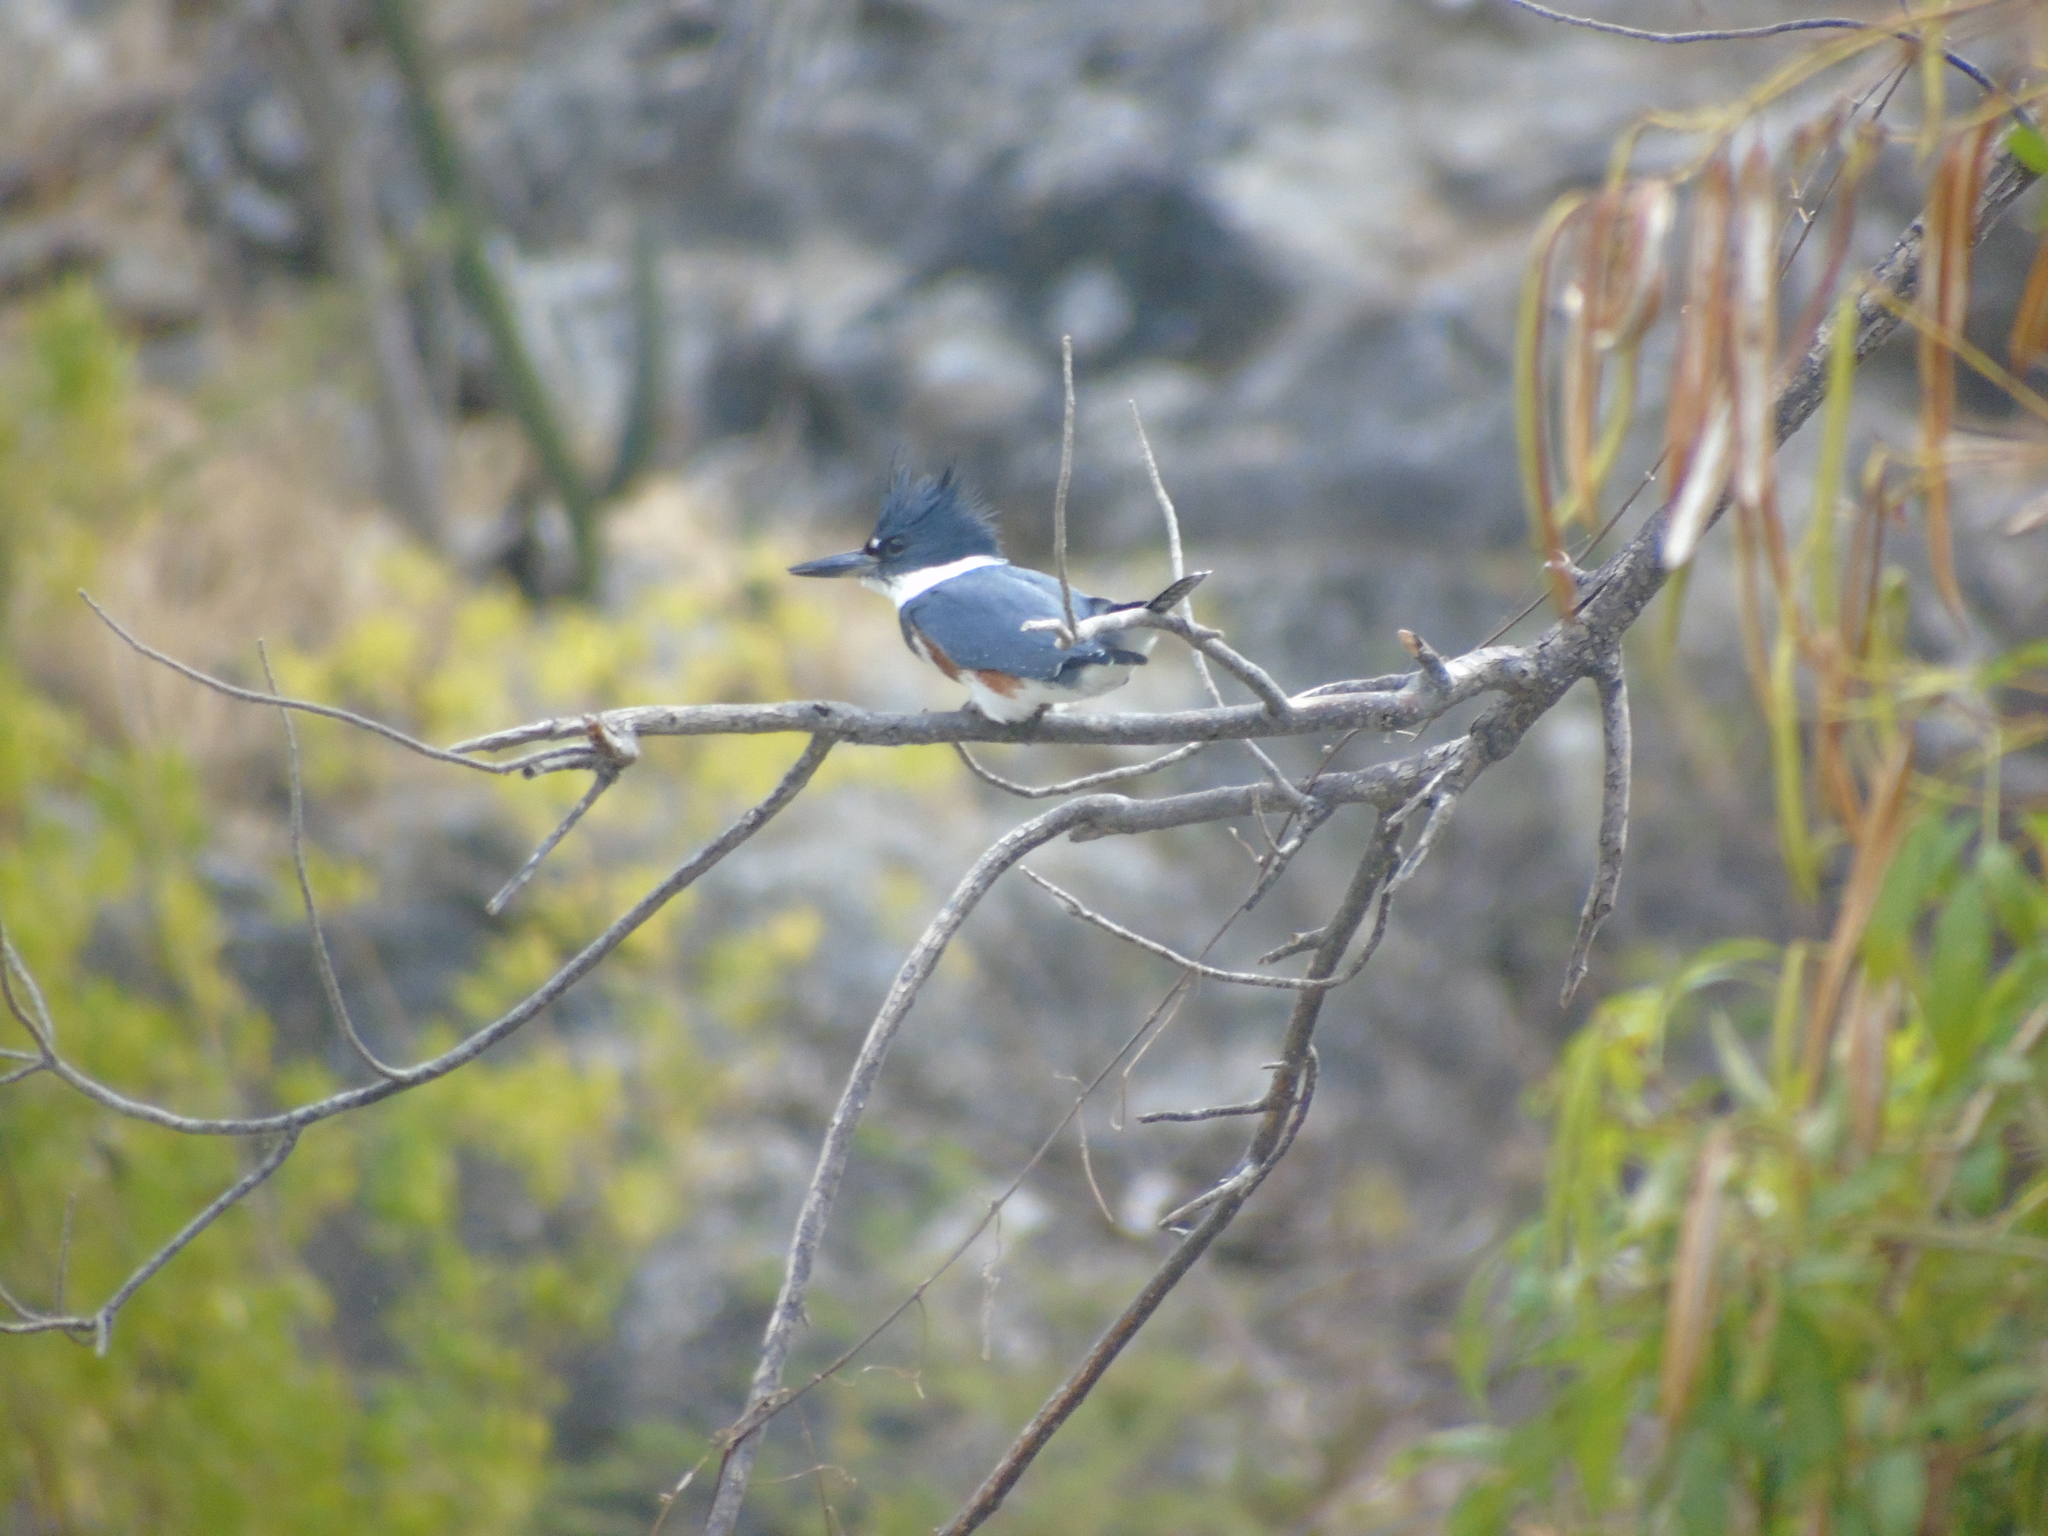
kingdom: Animalia
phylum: Chordata
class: Aves
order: Coraciiformes
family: Alcedinidae
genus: Megaceryle
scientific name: Megaceryle alcyon
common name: Belted kingfisher
